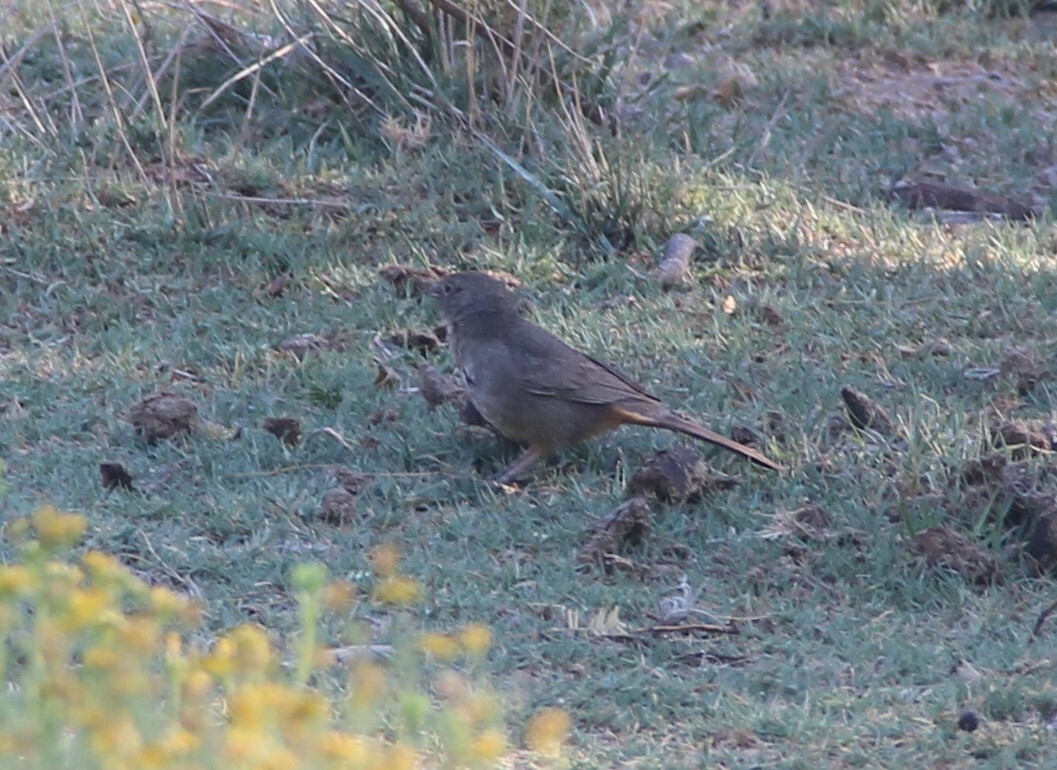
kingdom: Animalia
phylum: Chordata
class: Aves
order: Passeriformes
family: Passerellidae
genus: Melozone
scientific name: Melozone fusca
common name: Canyon towhee
